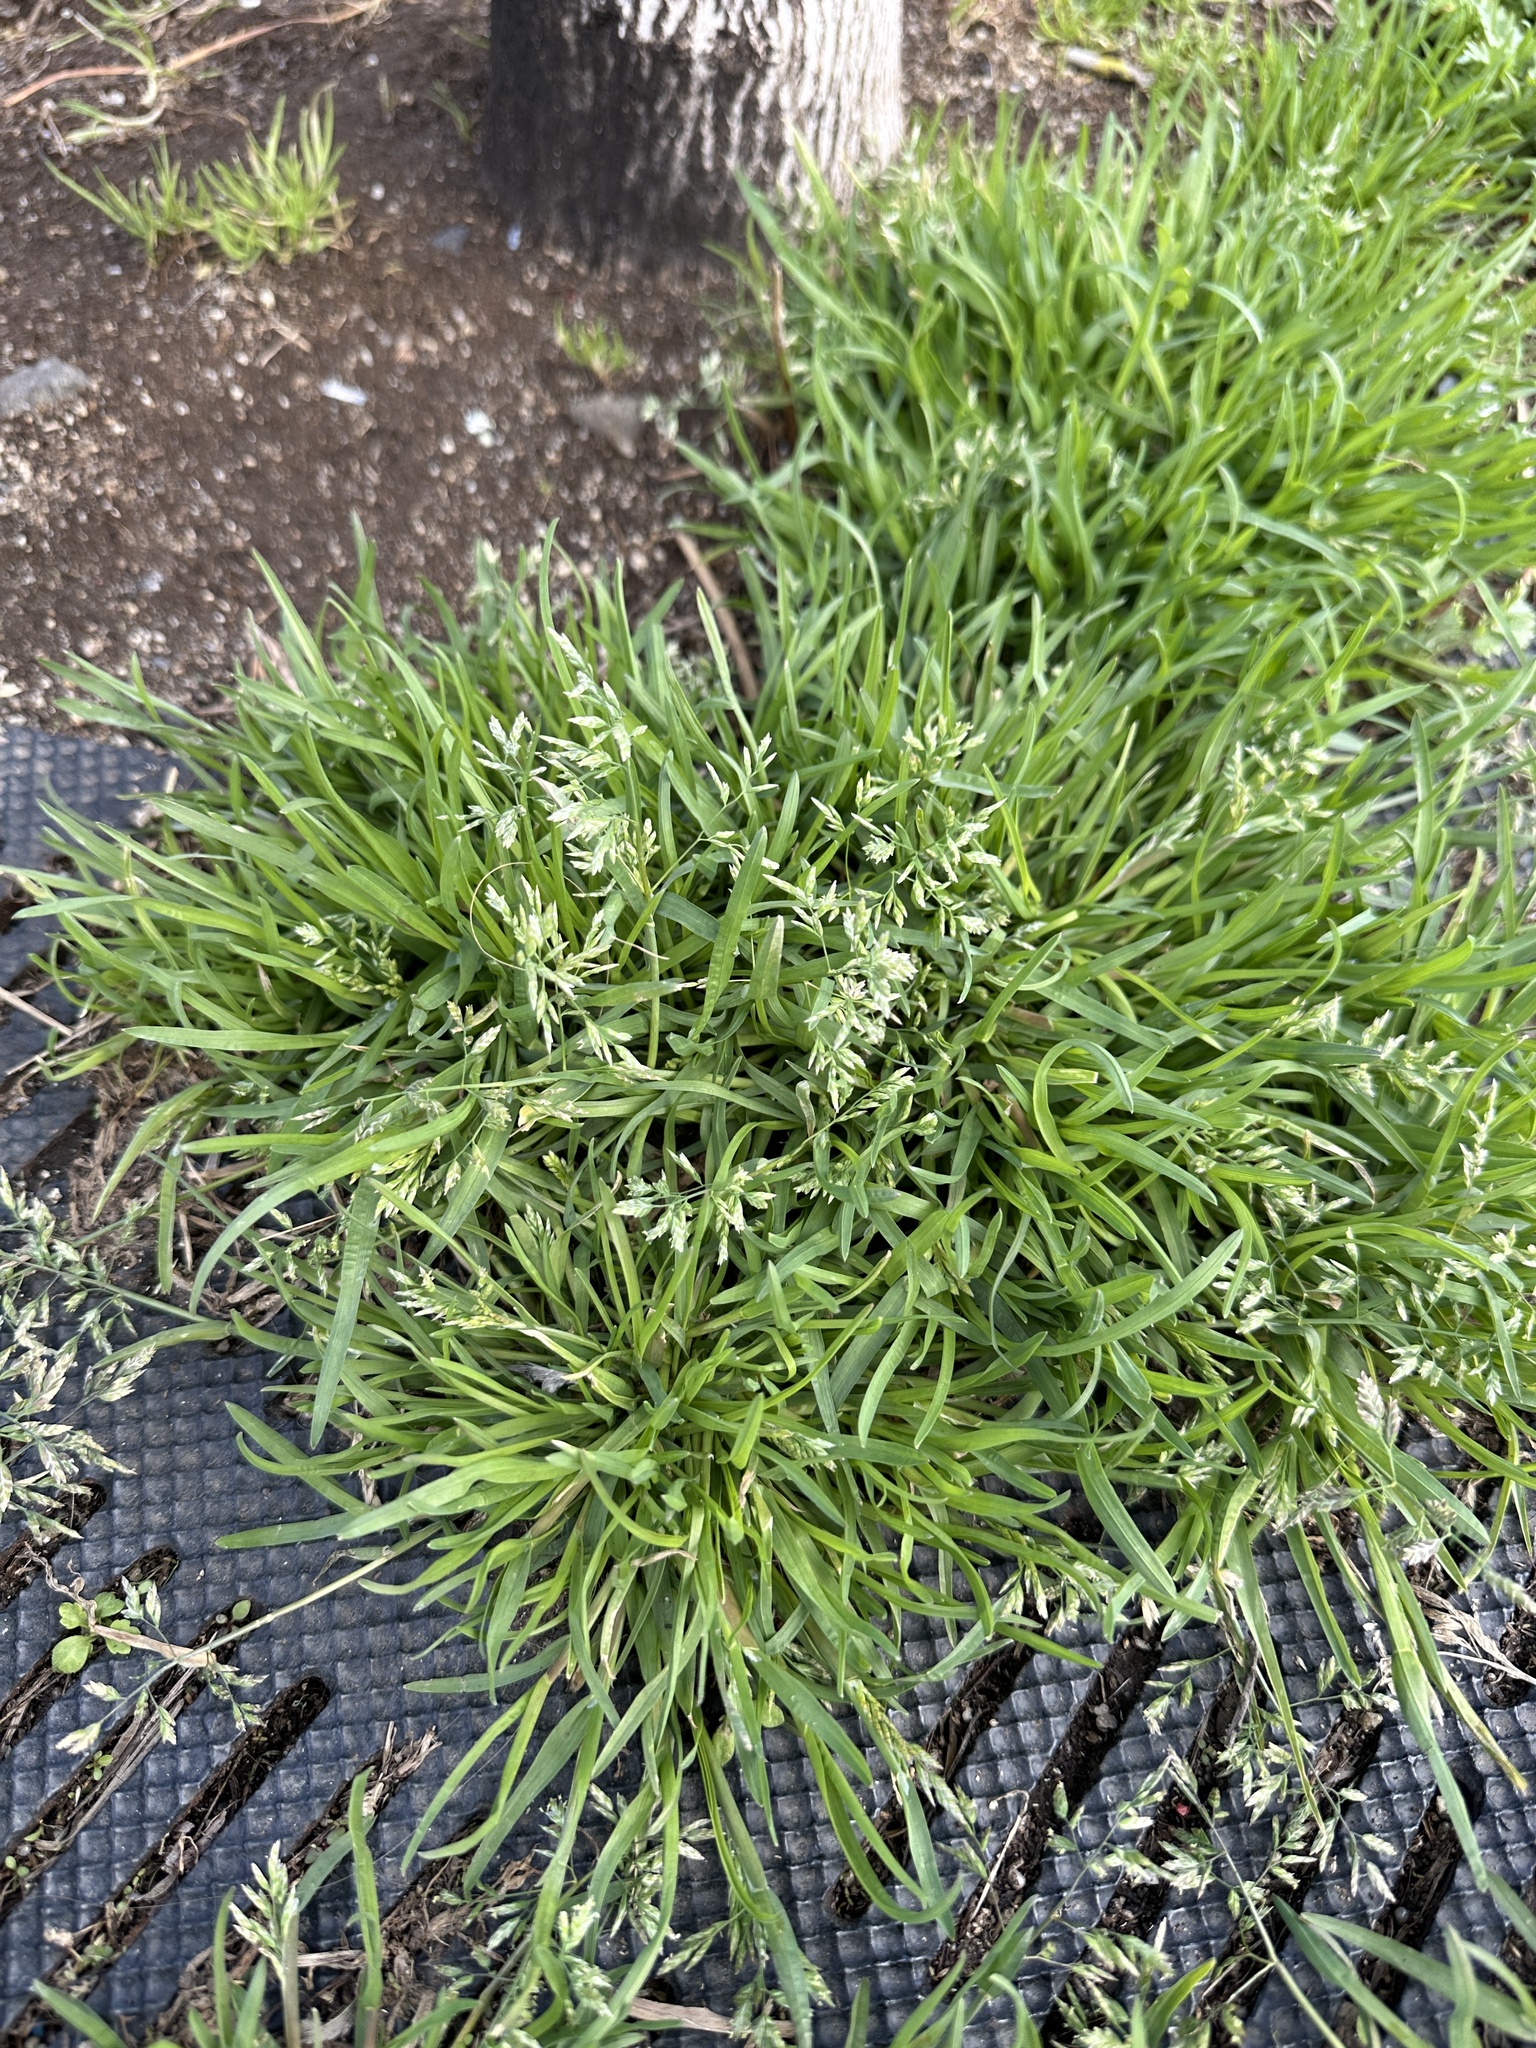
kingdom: Plantae
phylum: Tracheophyta
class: Liliopsida
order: Poales
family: Poaceae
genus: Poa
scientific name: Poa annua
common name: Annual bluegrass
